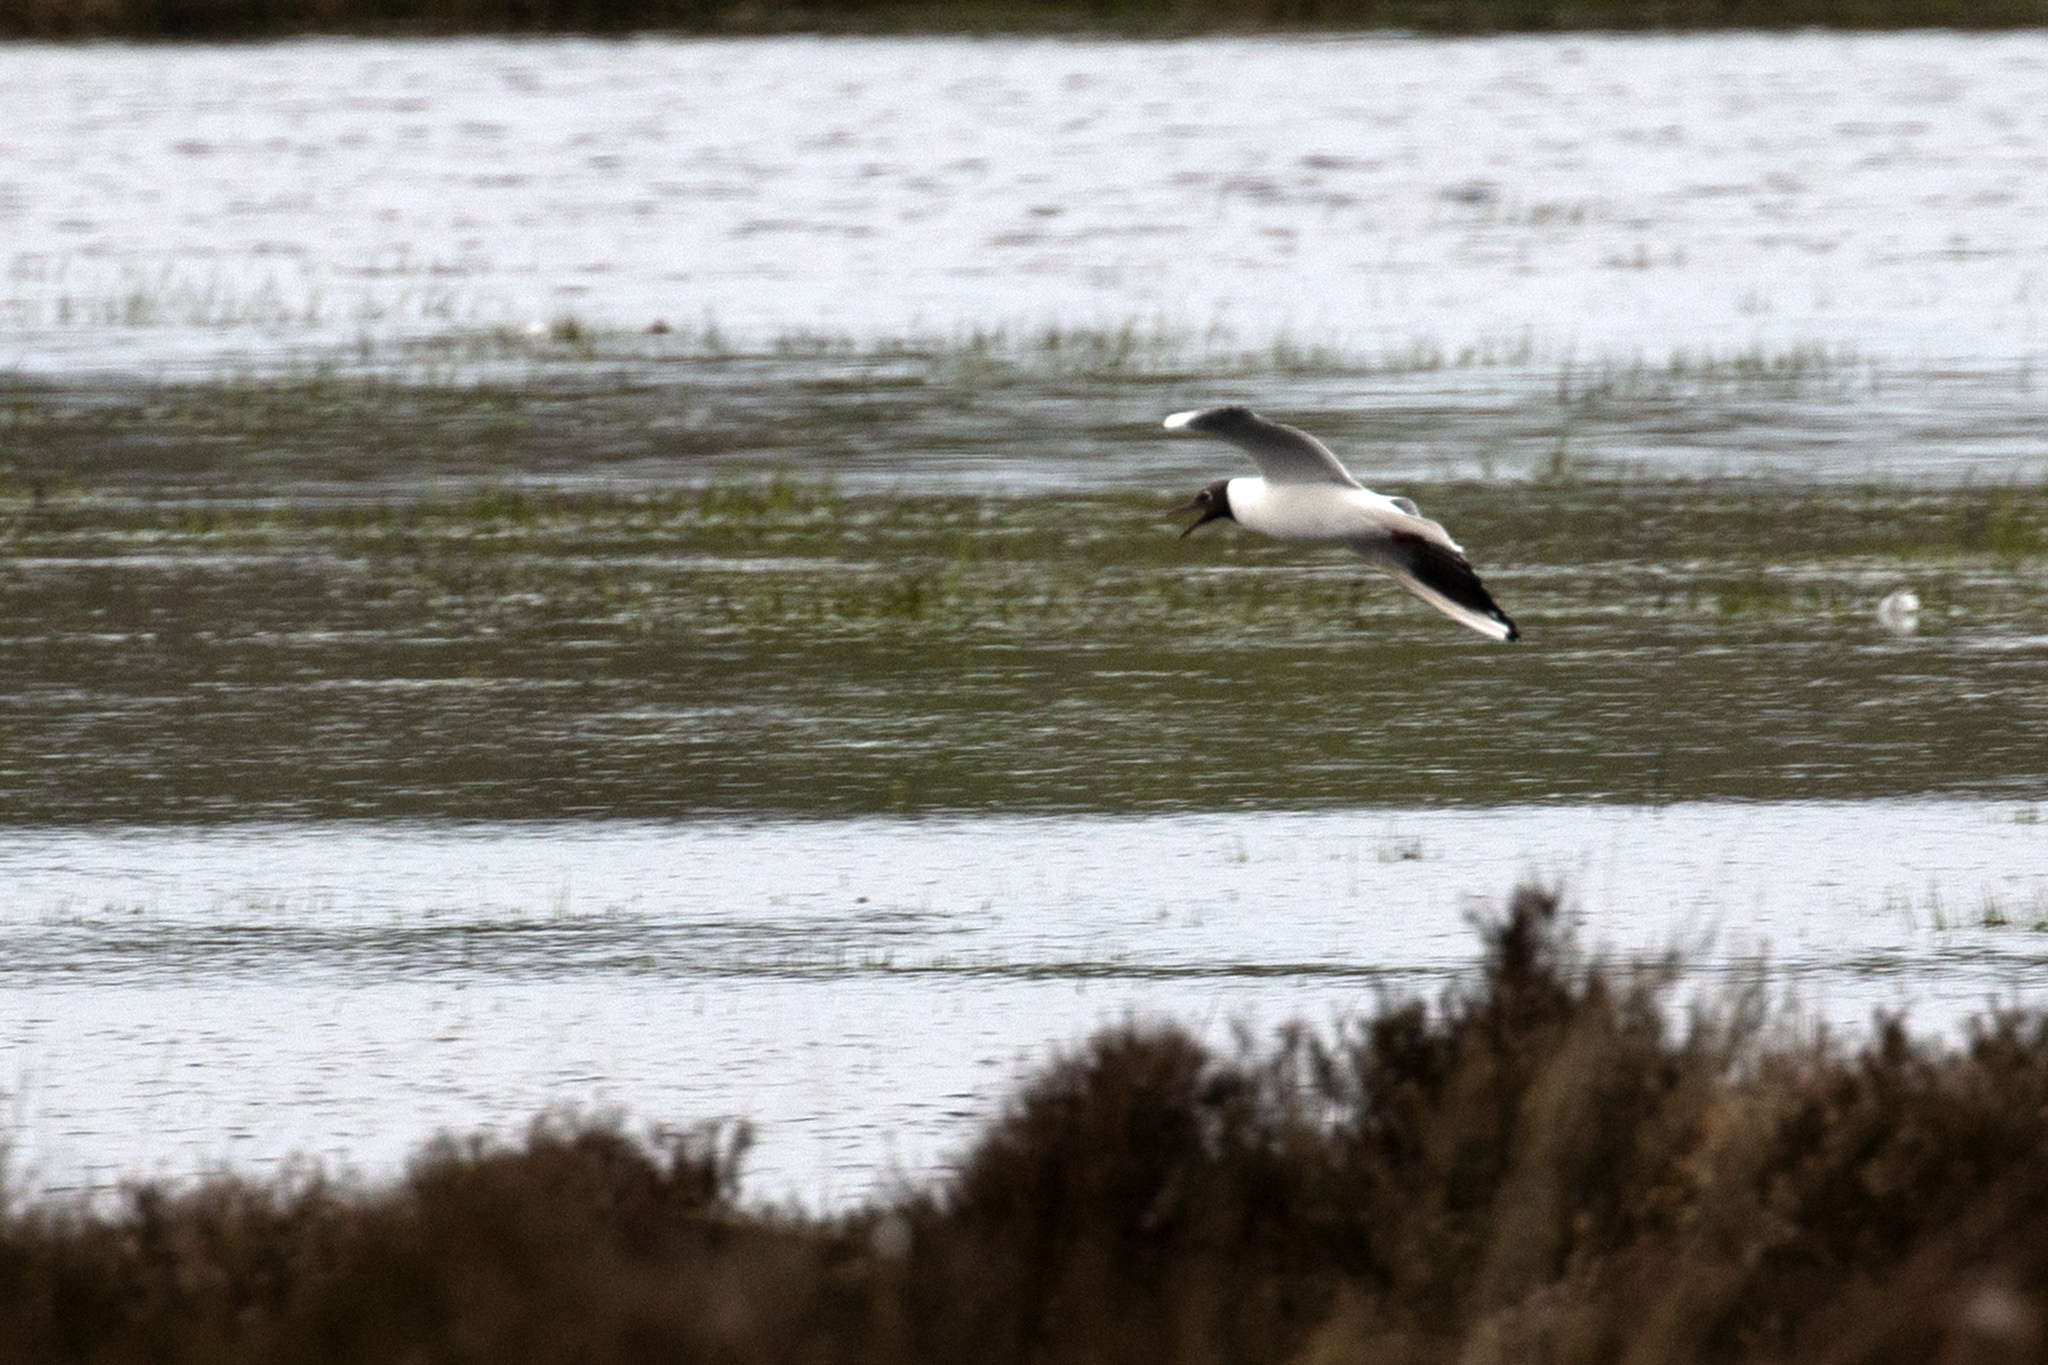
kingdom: Animalia
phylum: Chordata
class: Aves
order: Charadriiformes
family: Laridae
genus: Chroicocephalus
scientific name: Chroicocephalus ridibundus
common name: Black-headed gull
